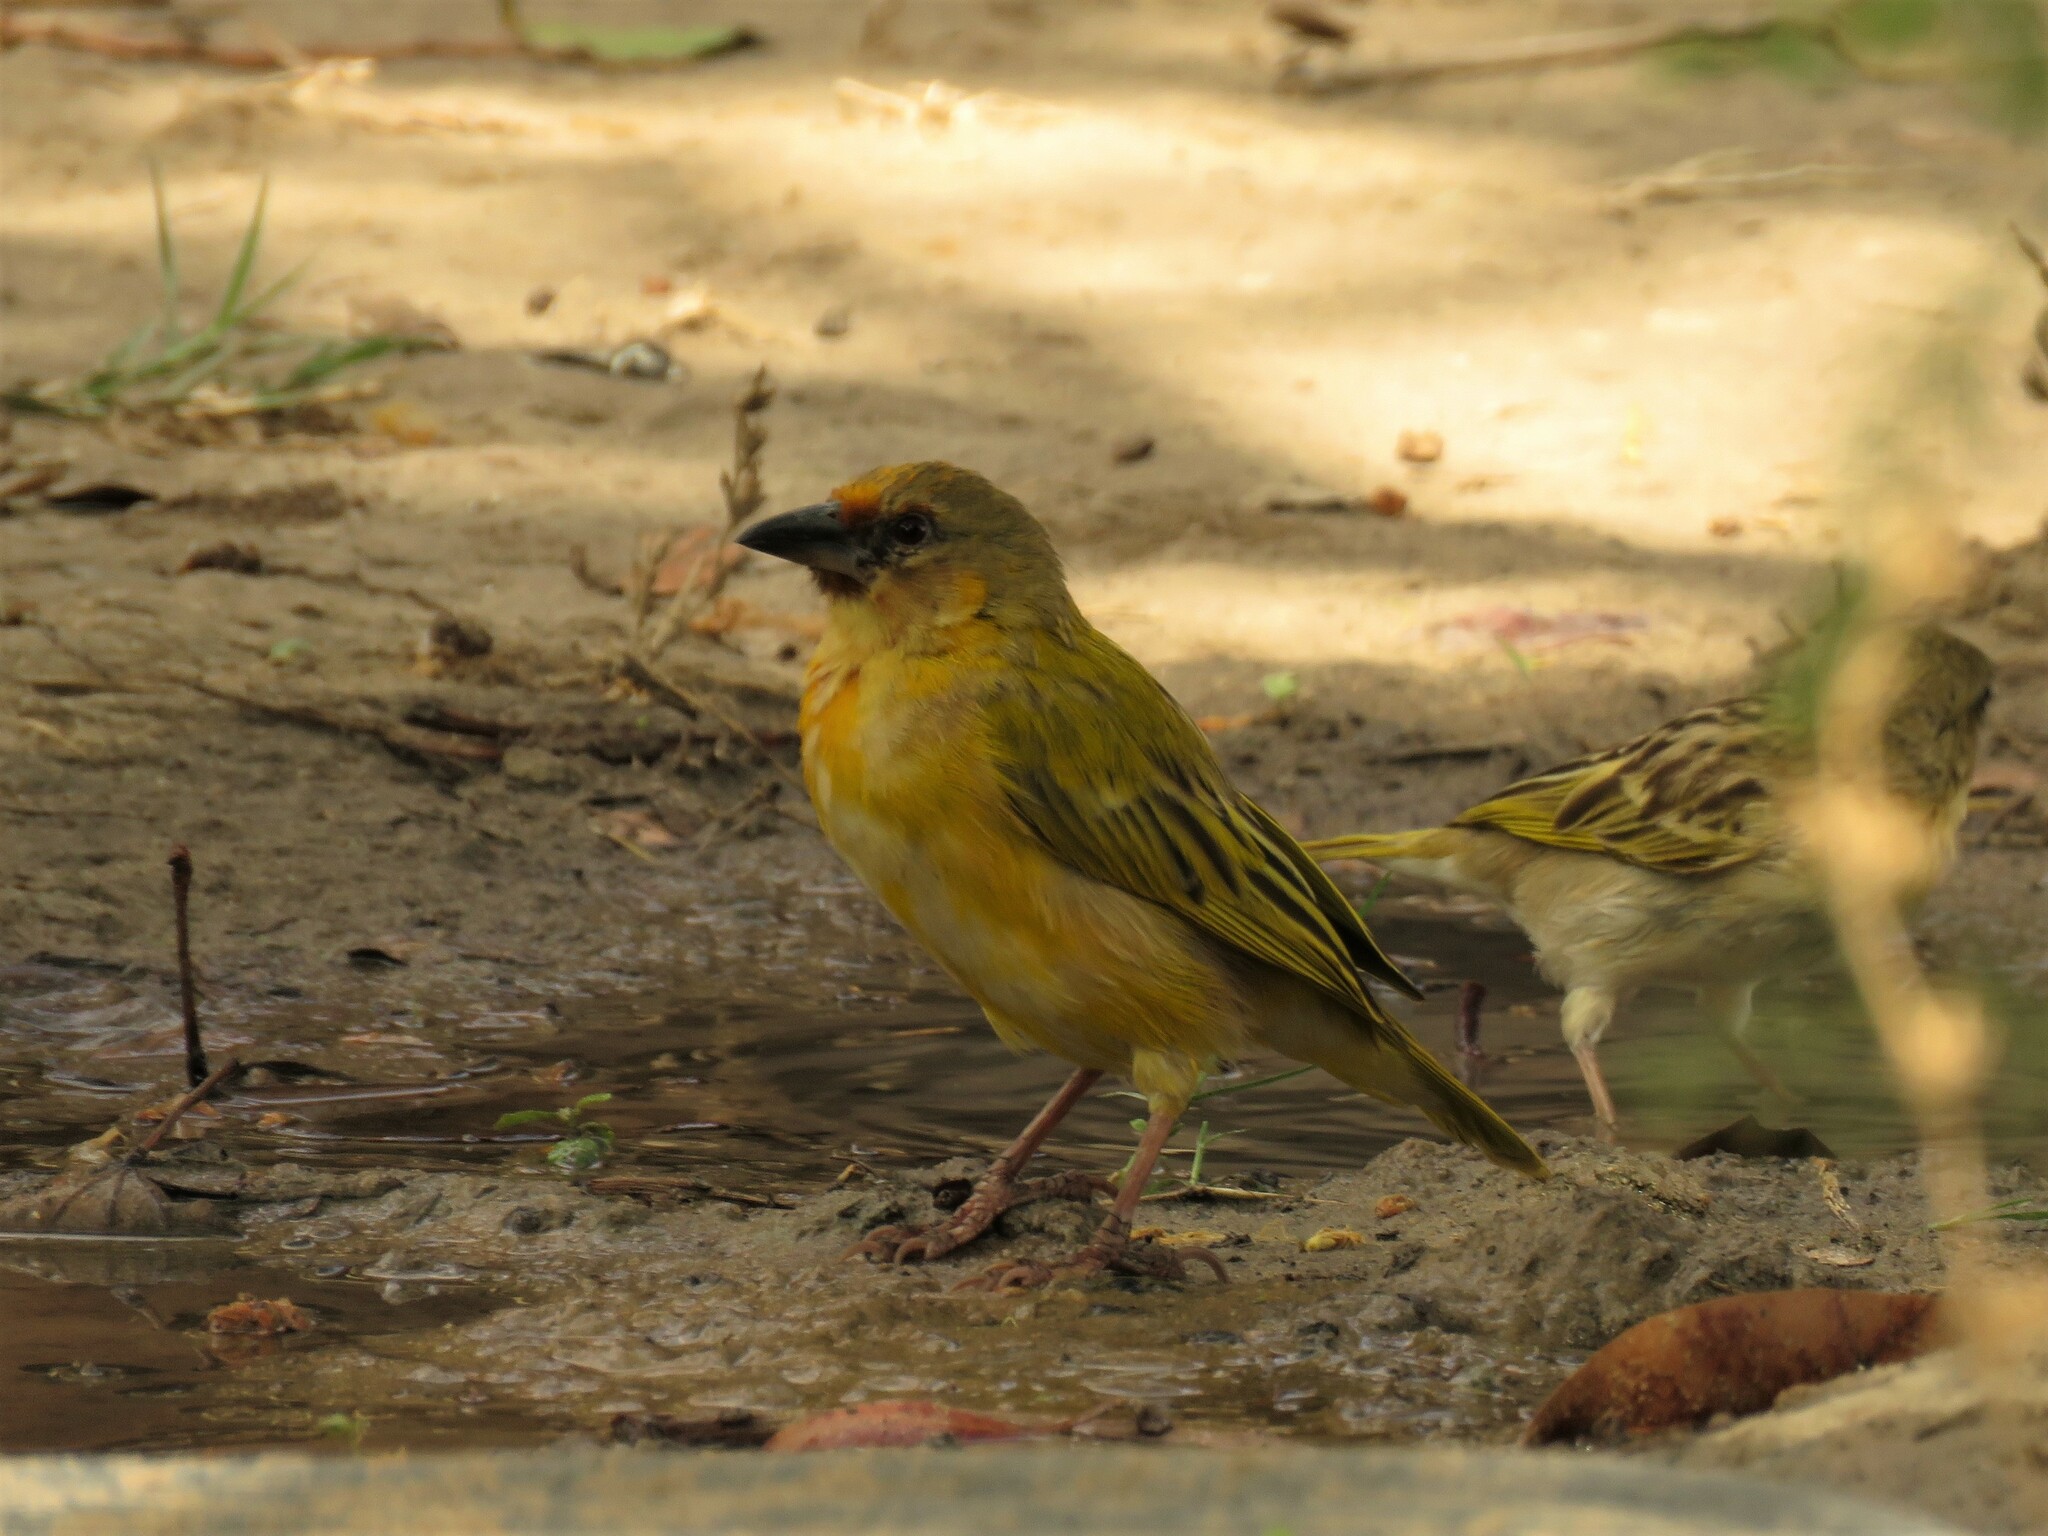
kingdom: Animalia
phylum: Chordata
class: Aves
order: Passeriformes
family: Ploceidae
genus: Ploceus
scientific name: Ploceus xanthopterus
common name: Southern brown-throated weaver
